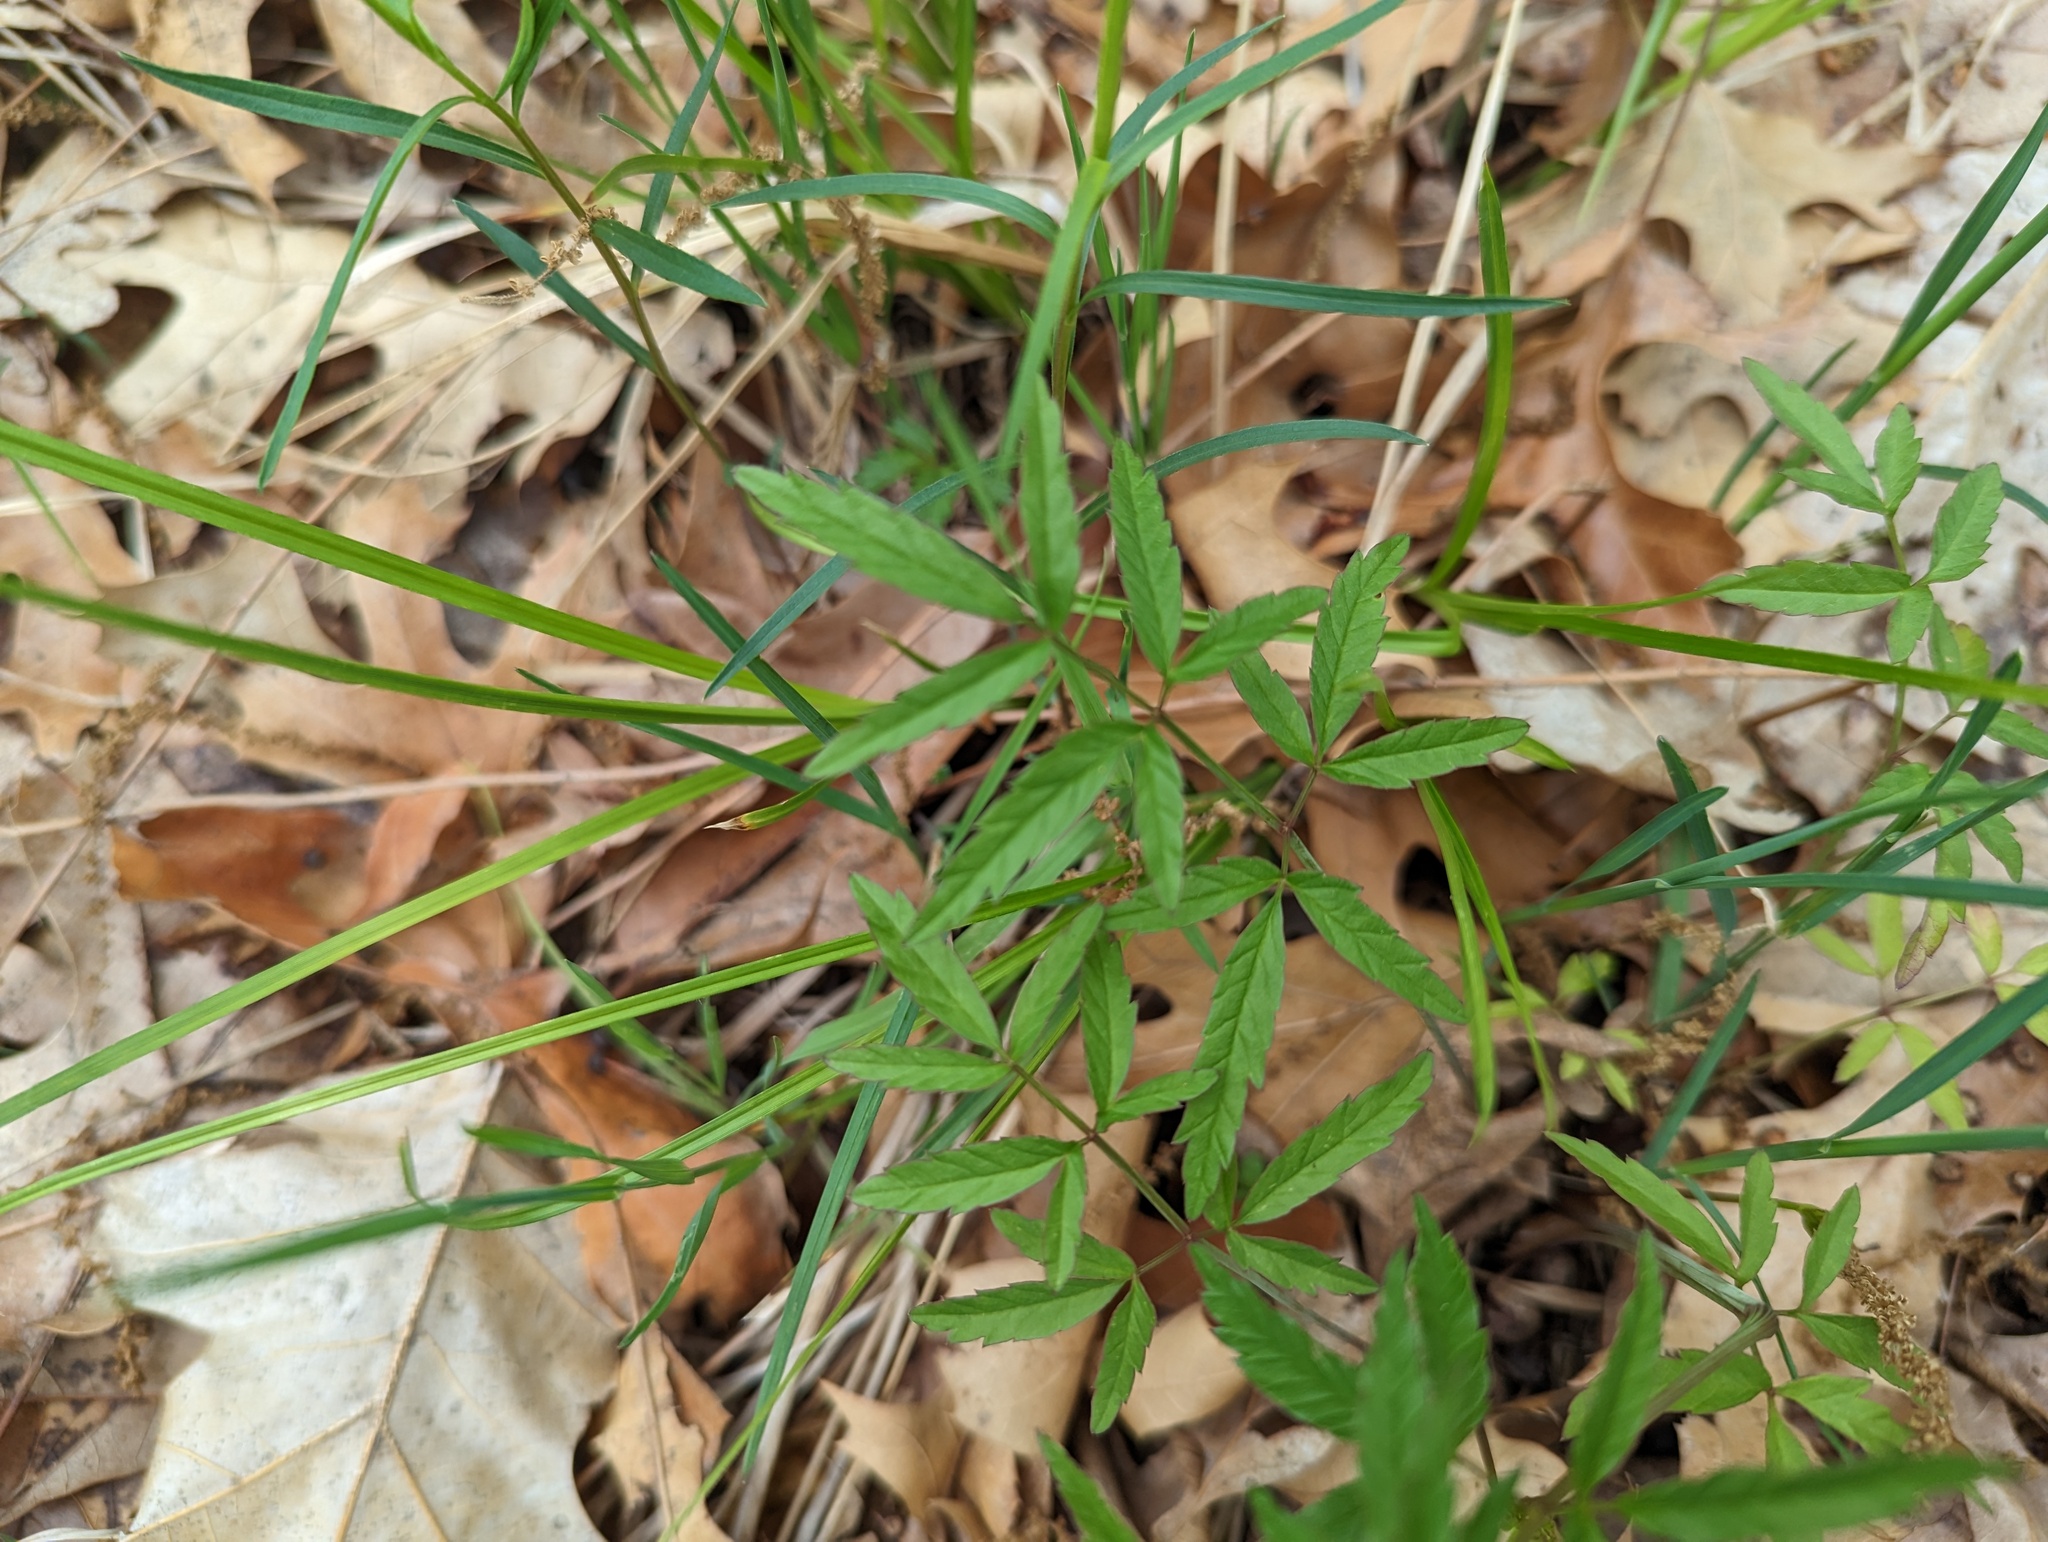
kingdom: Plantae
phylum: Tracheophyta
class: Magnoliopsida
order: Apiales
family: Apiaceae
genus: Cicuta
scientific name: Cicuta maculata
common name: Spotted cowbane
